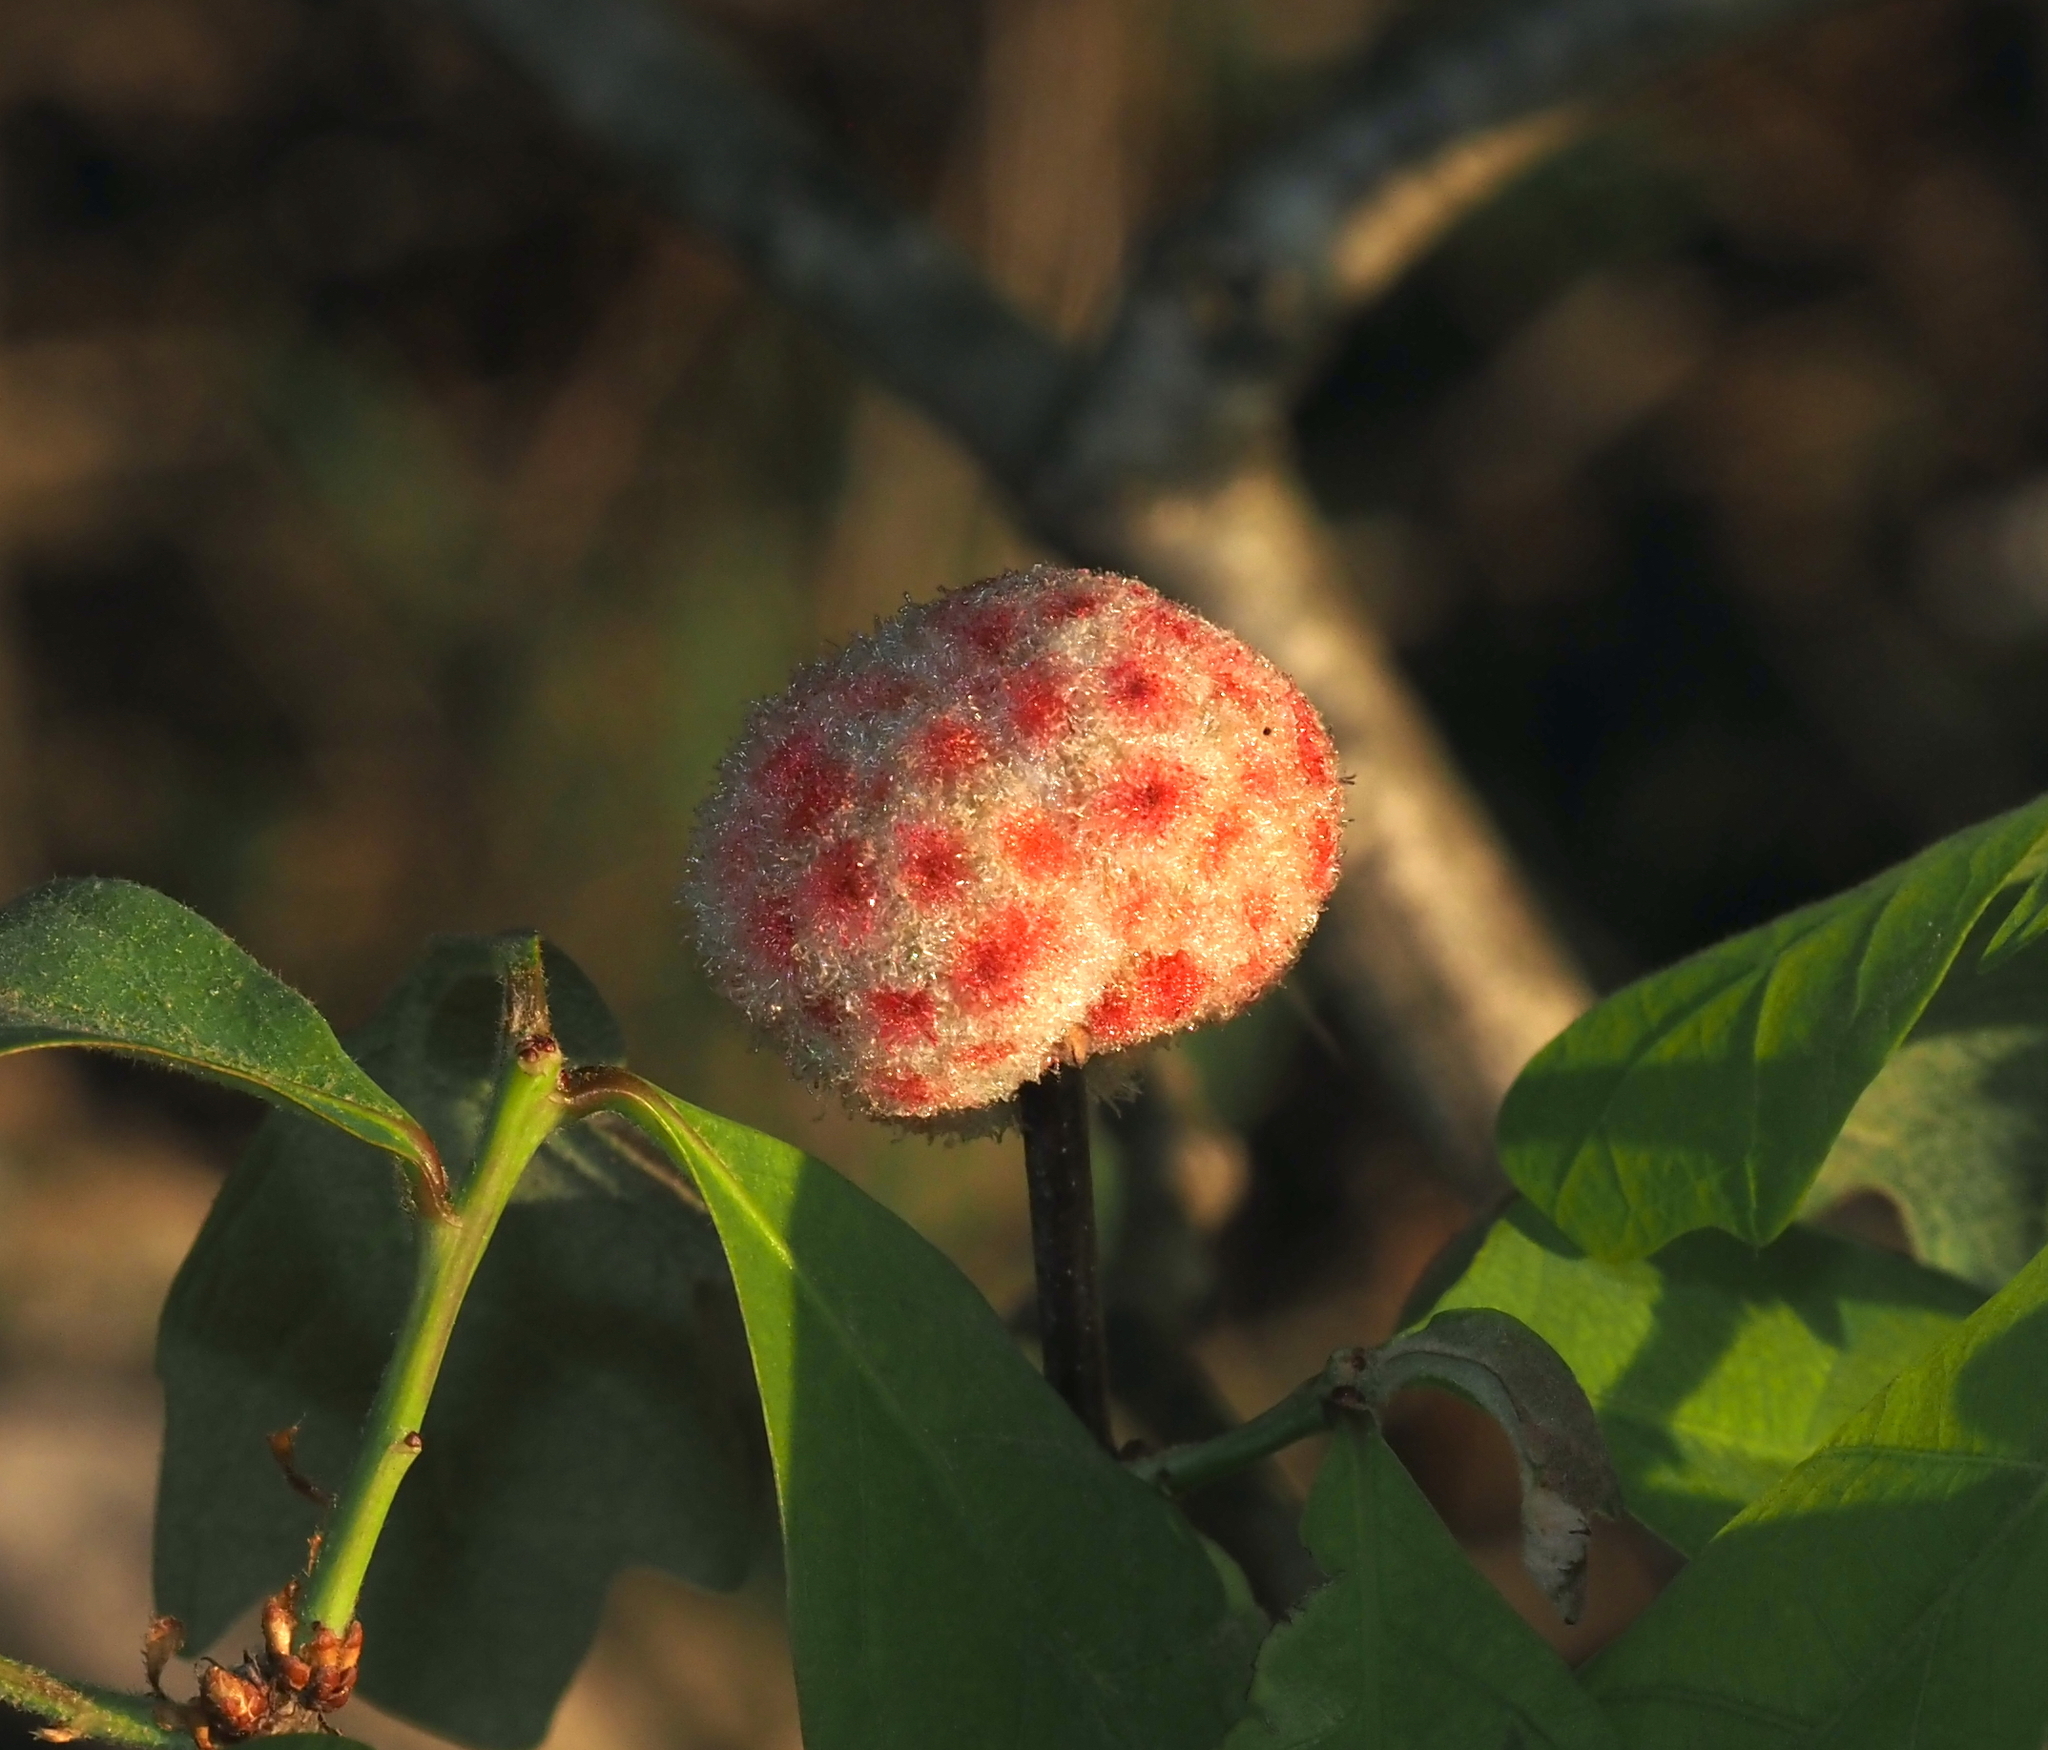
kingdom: Animalia
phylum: Arthropoda
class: Insecta
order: Hymenoptera
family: Cynipidae
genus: Callirhytis
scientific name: Callirhytis
